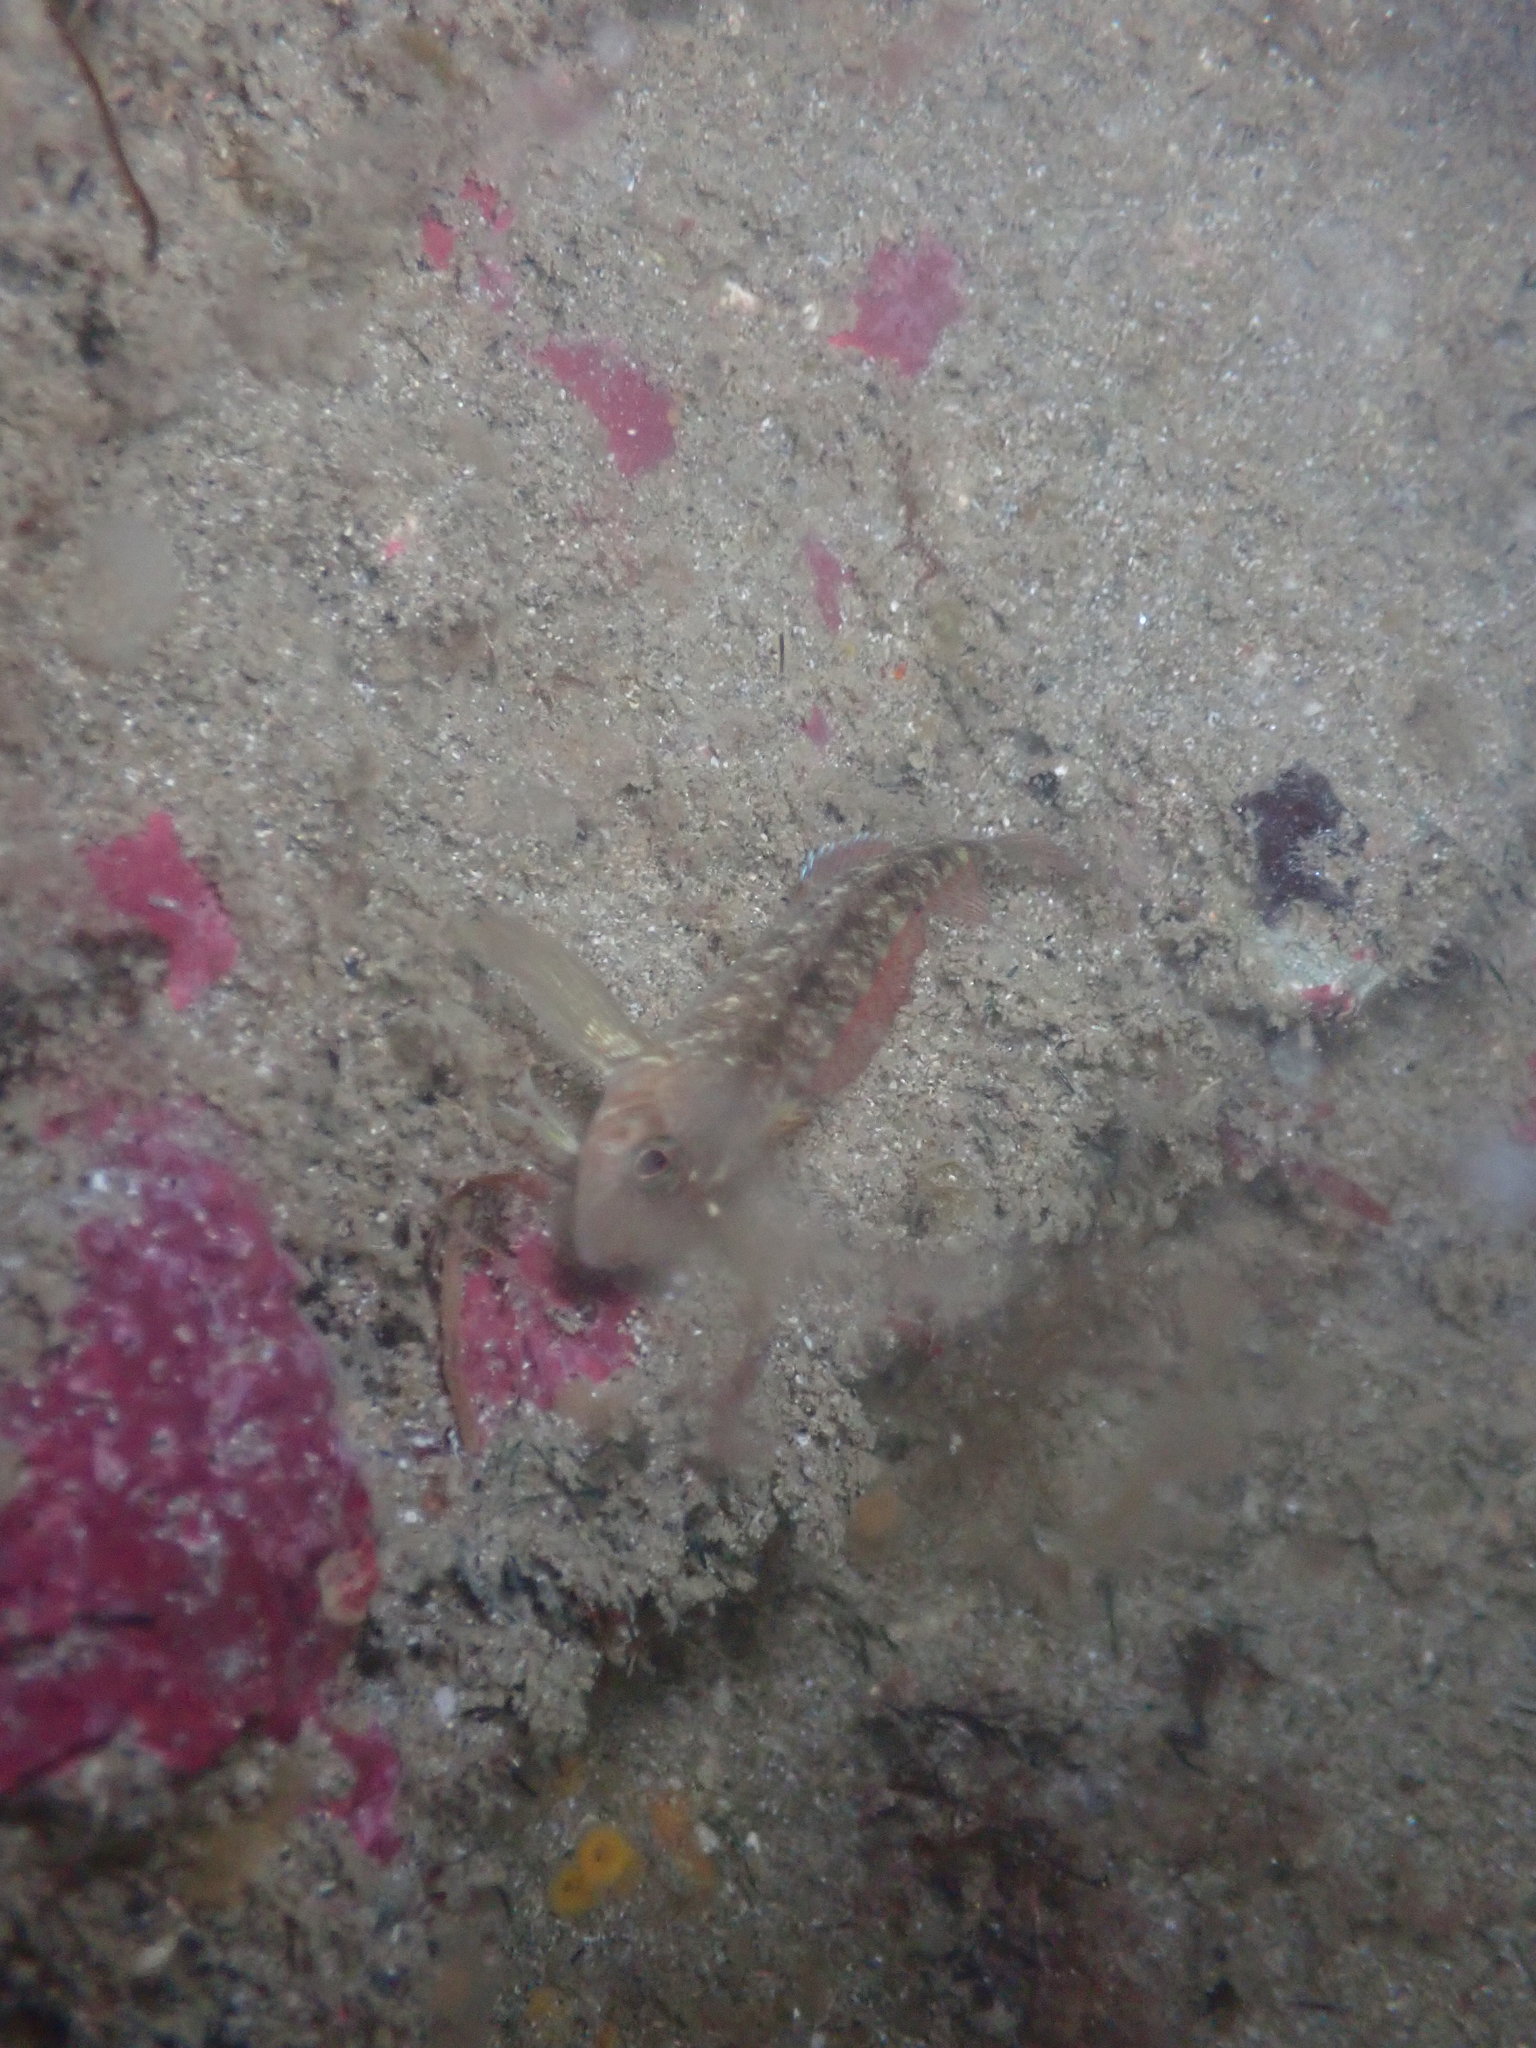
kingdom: Animalia
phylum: Chordata
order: Perciformes
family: Tripterygiidae
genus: Forsterygion
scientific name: Forsterygion lapillum
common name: Common triplefin
